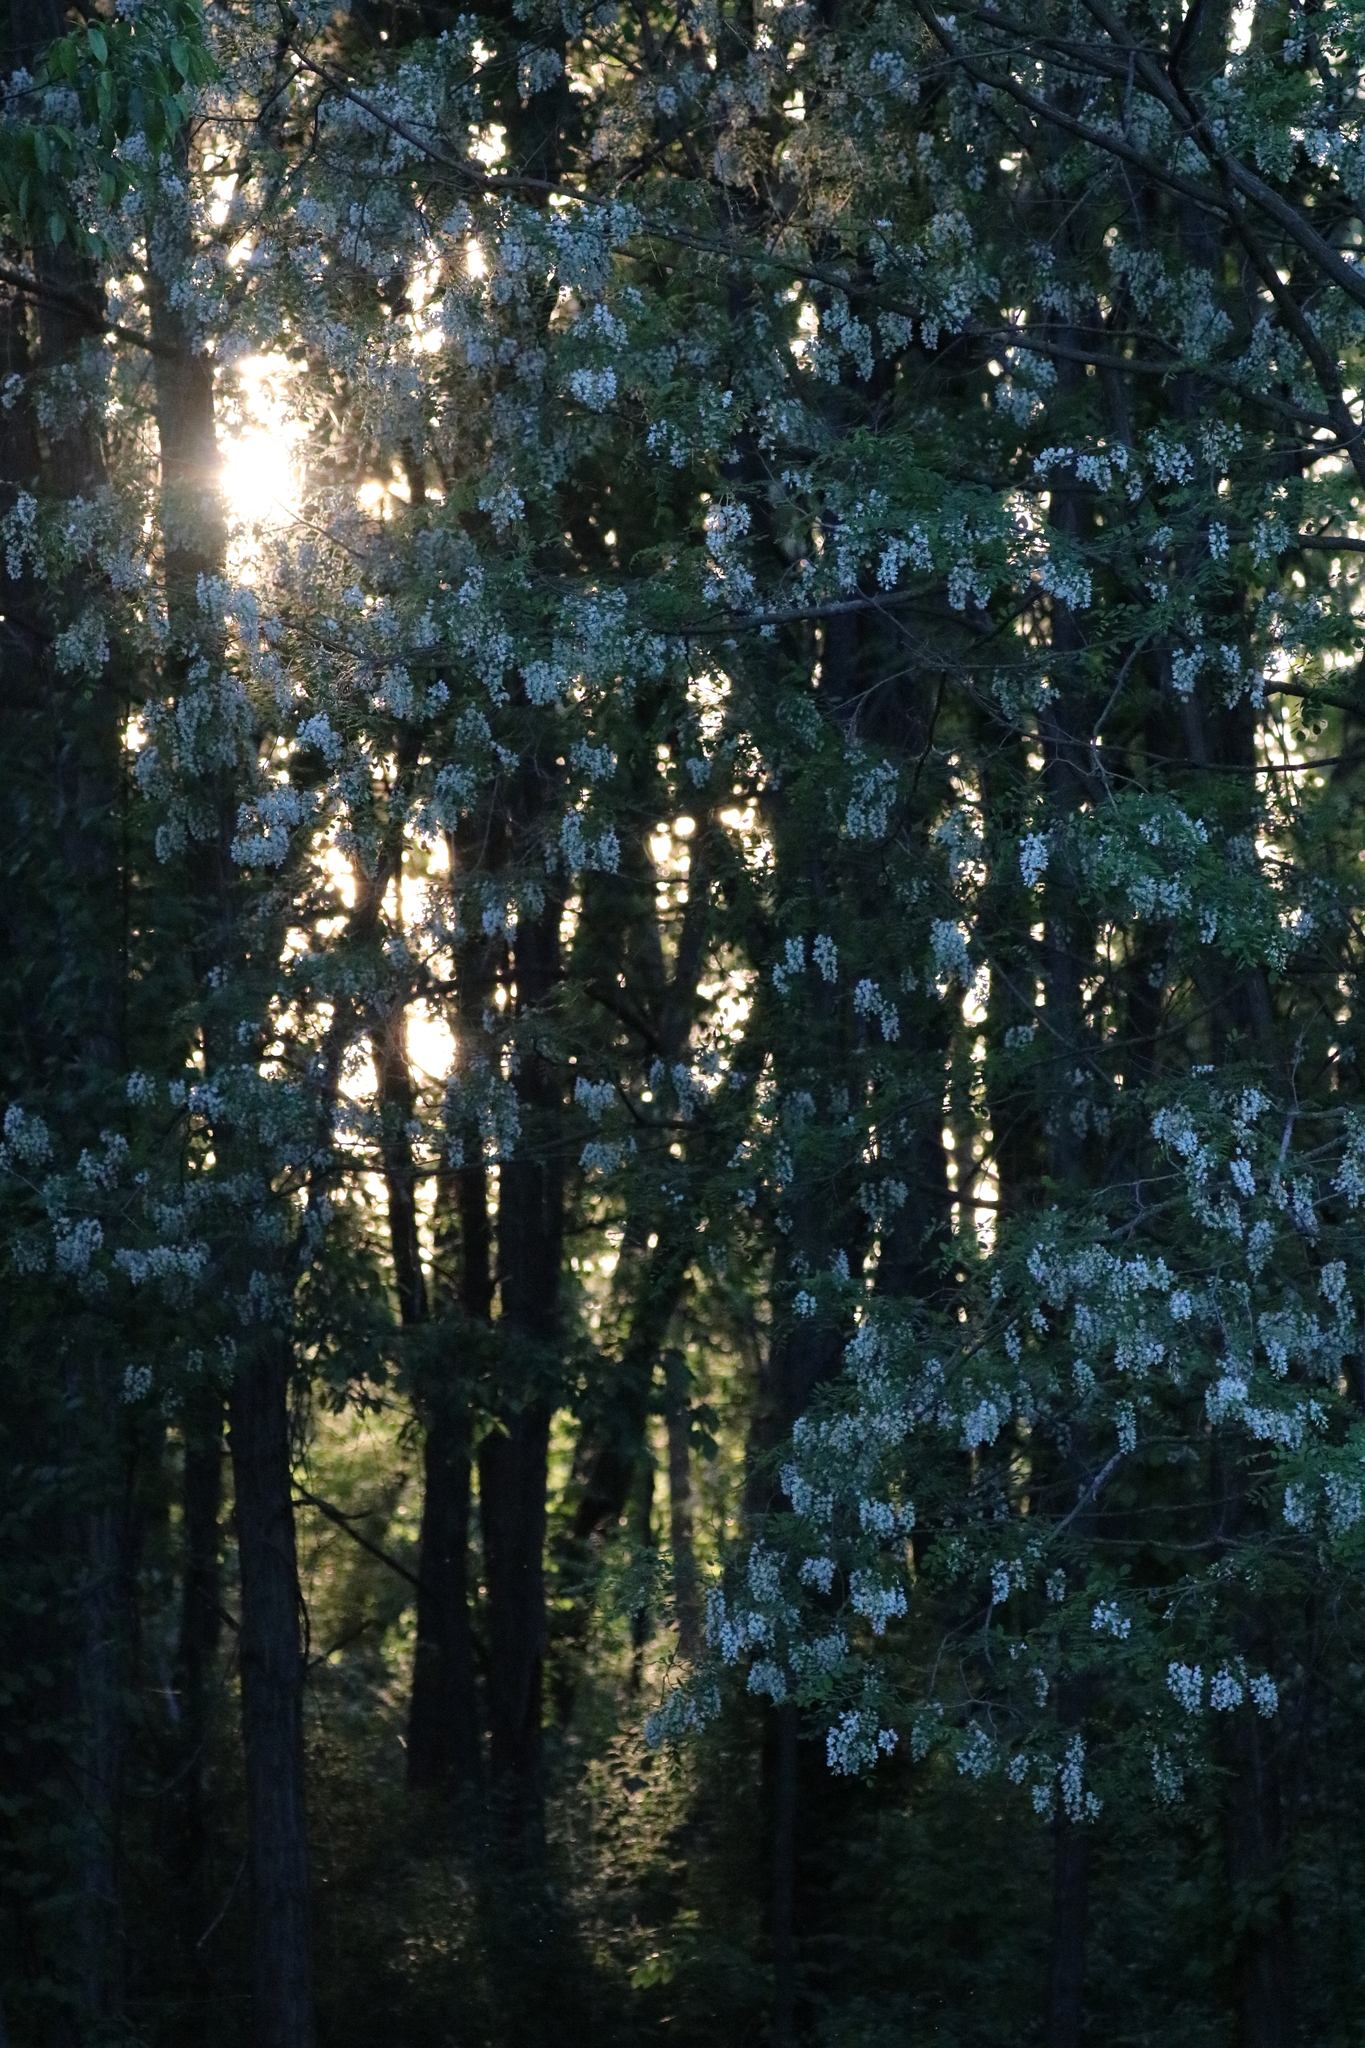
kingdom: Plantae
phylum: Tracheophyta
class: Magnoliopsida
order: Fabales
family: Fabaceae
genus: Robinia
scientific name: Robinia pseudoacacia
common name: Black locust
